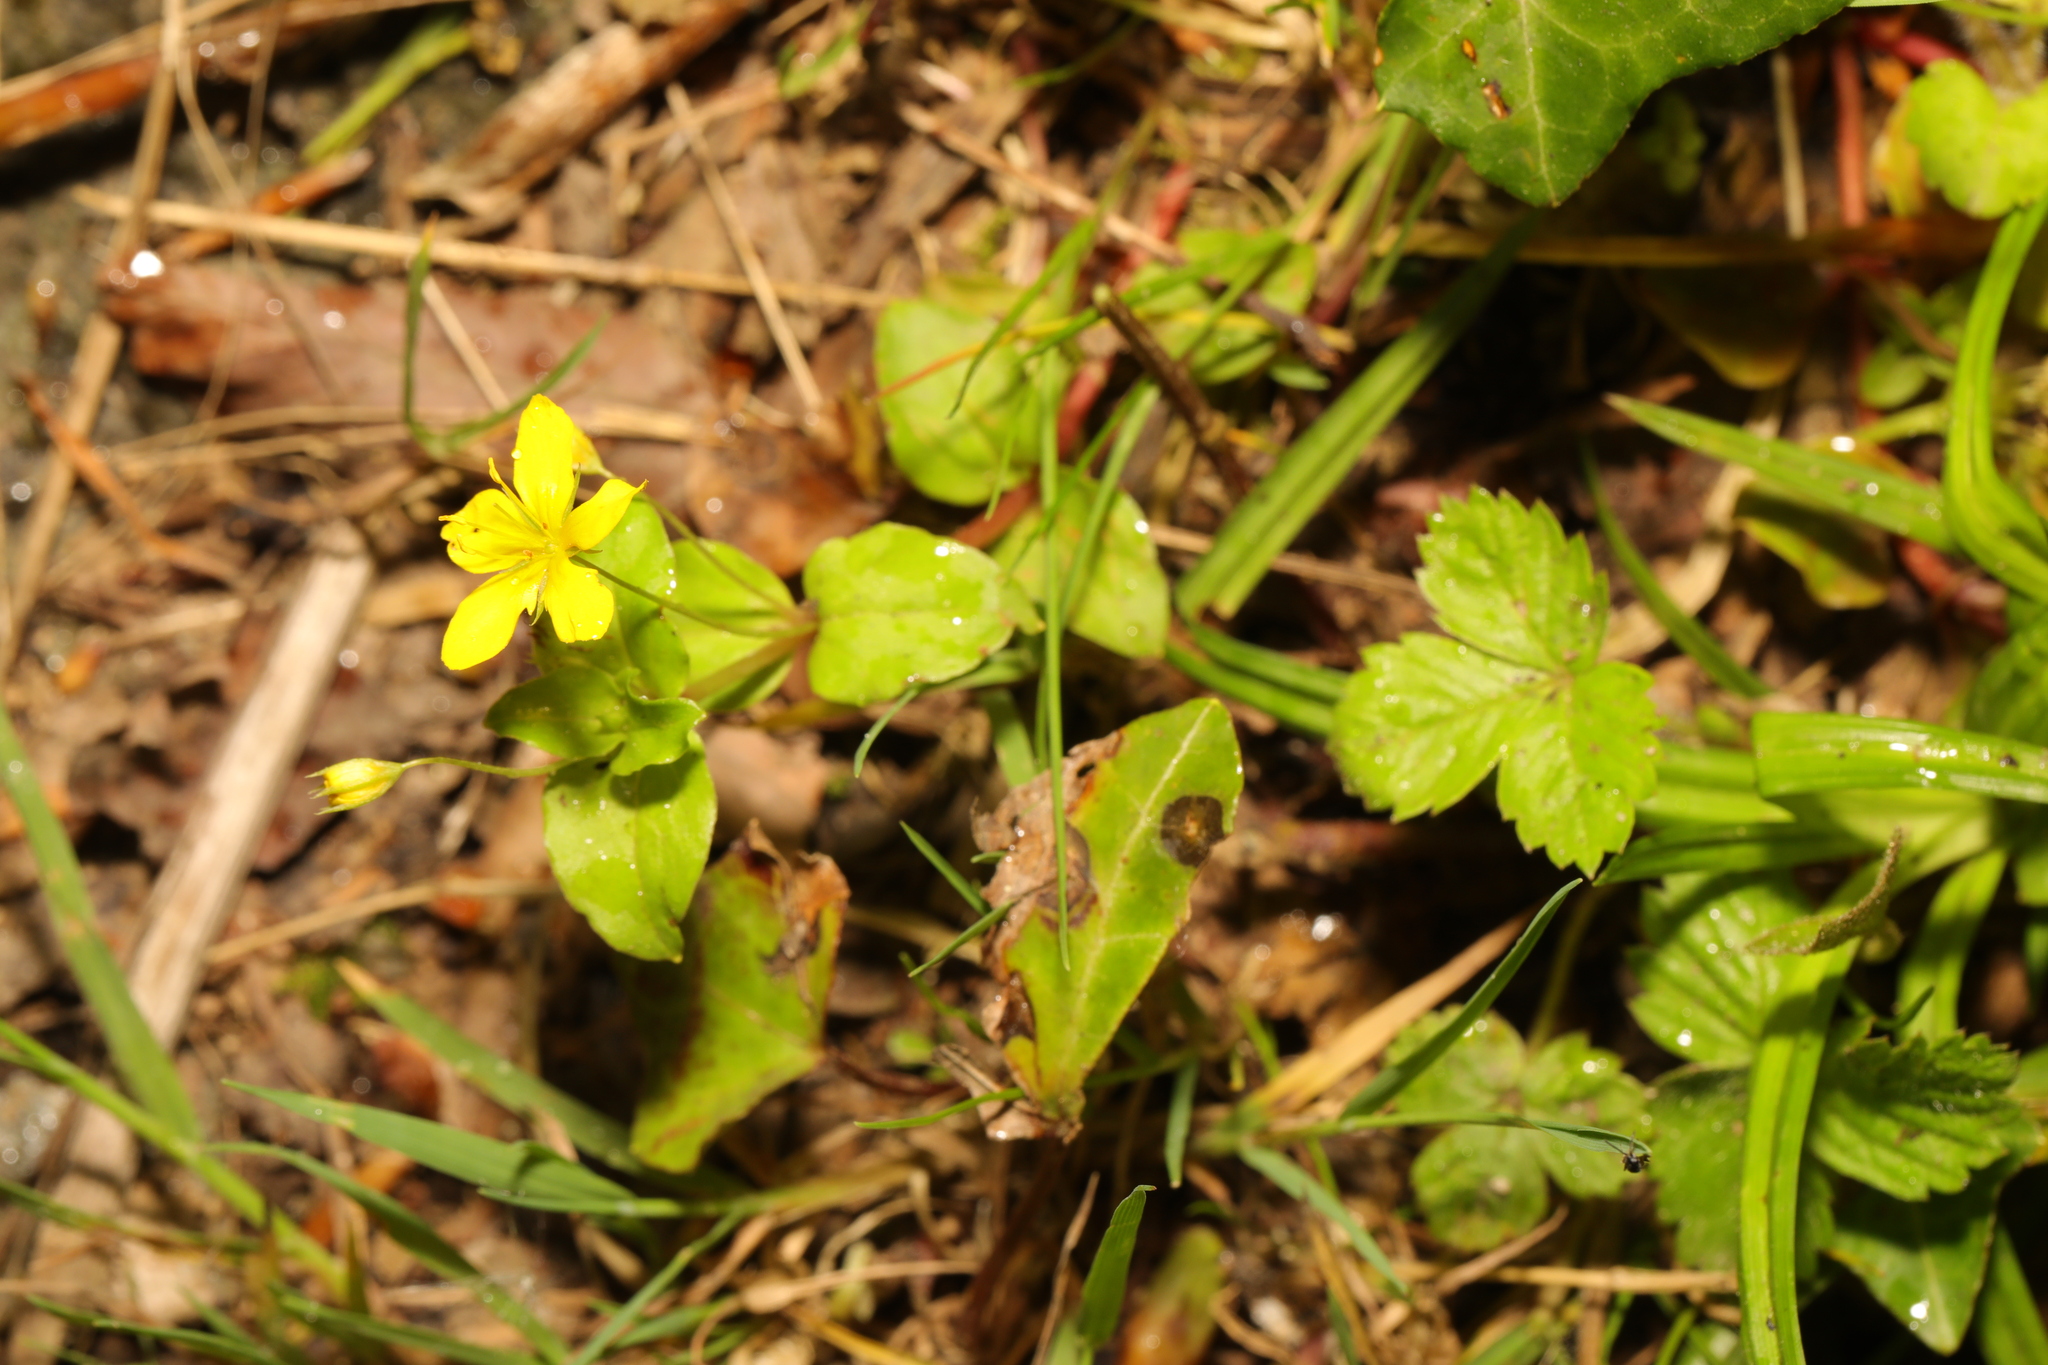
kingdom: Plantae
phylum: Tracheophyta
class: Magnoliopsida
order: Ericales
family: Primulaceae
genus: Lysimachia
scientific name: Lysimachia nemorum
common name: Yellow pimpernel
